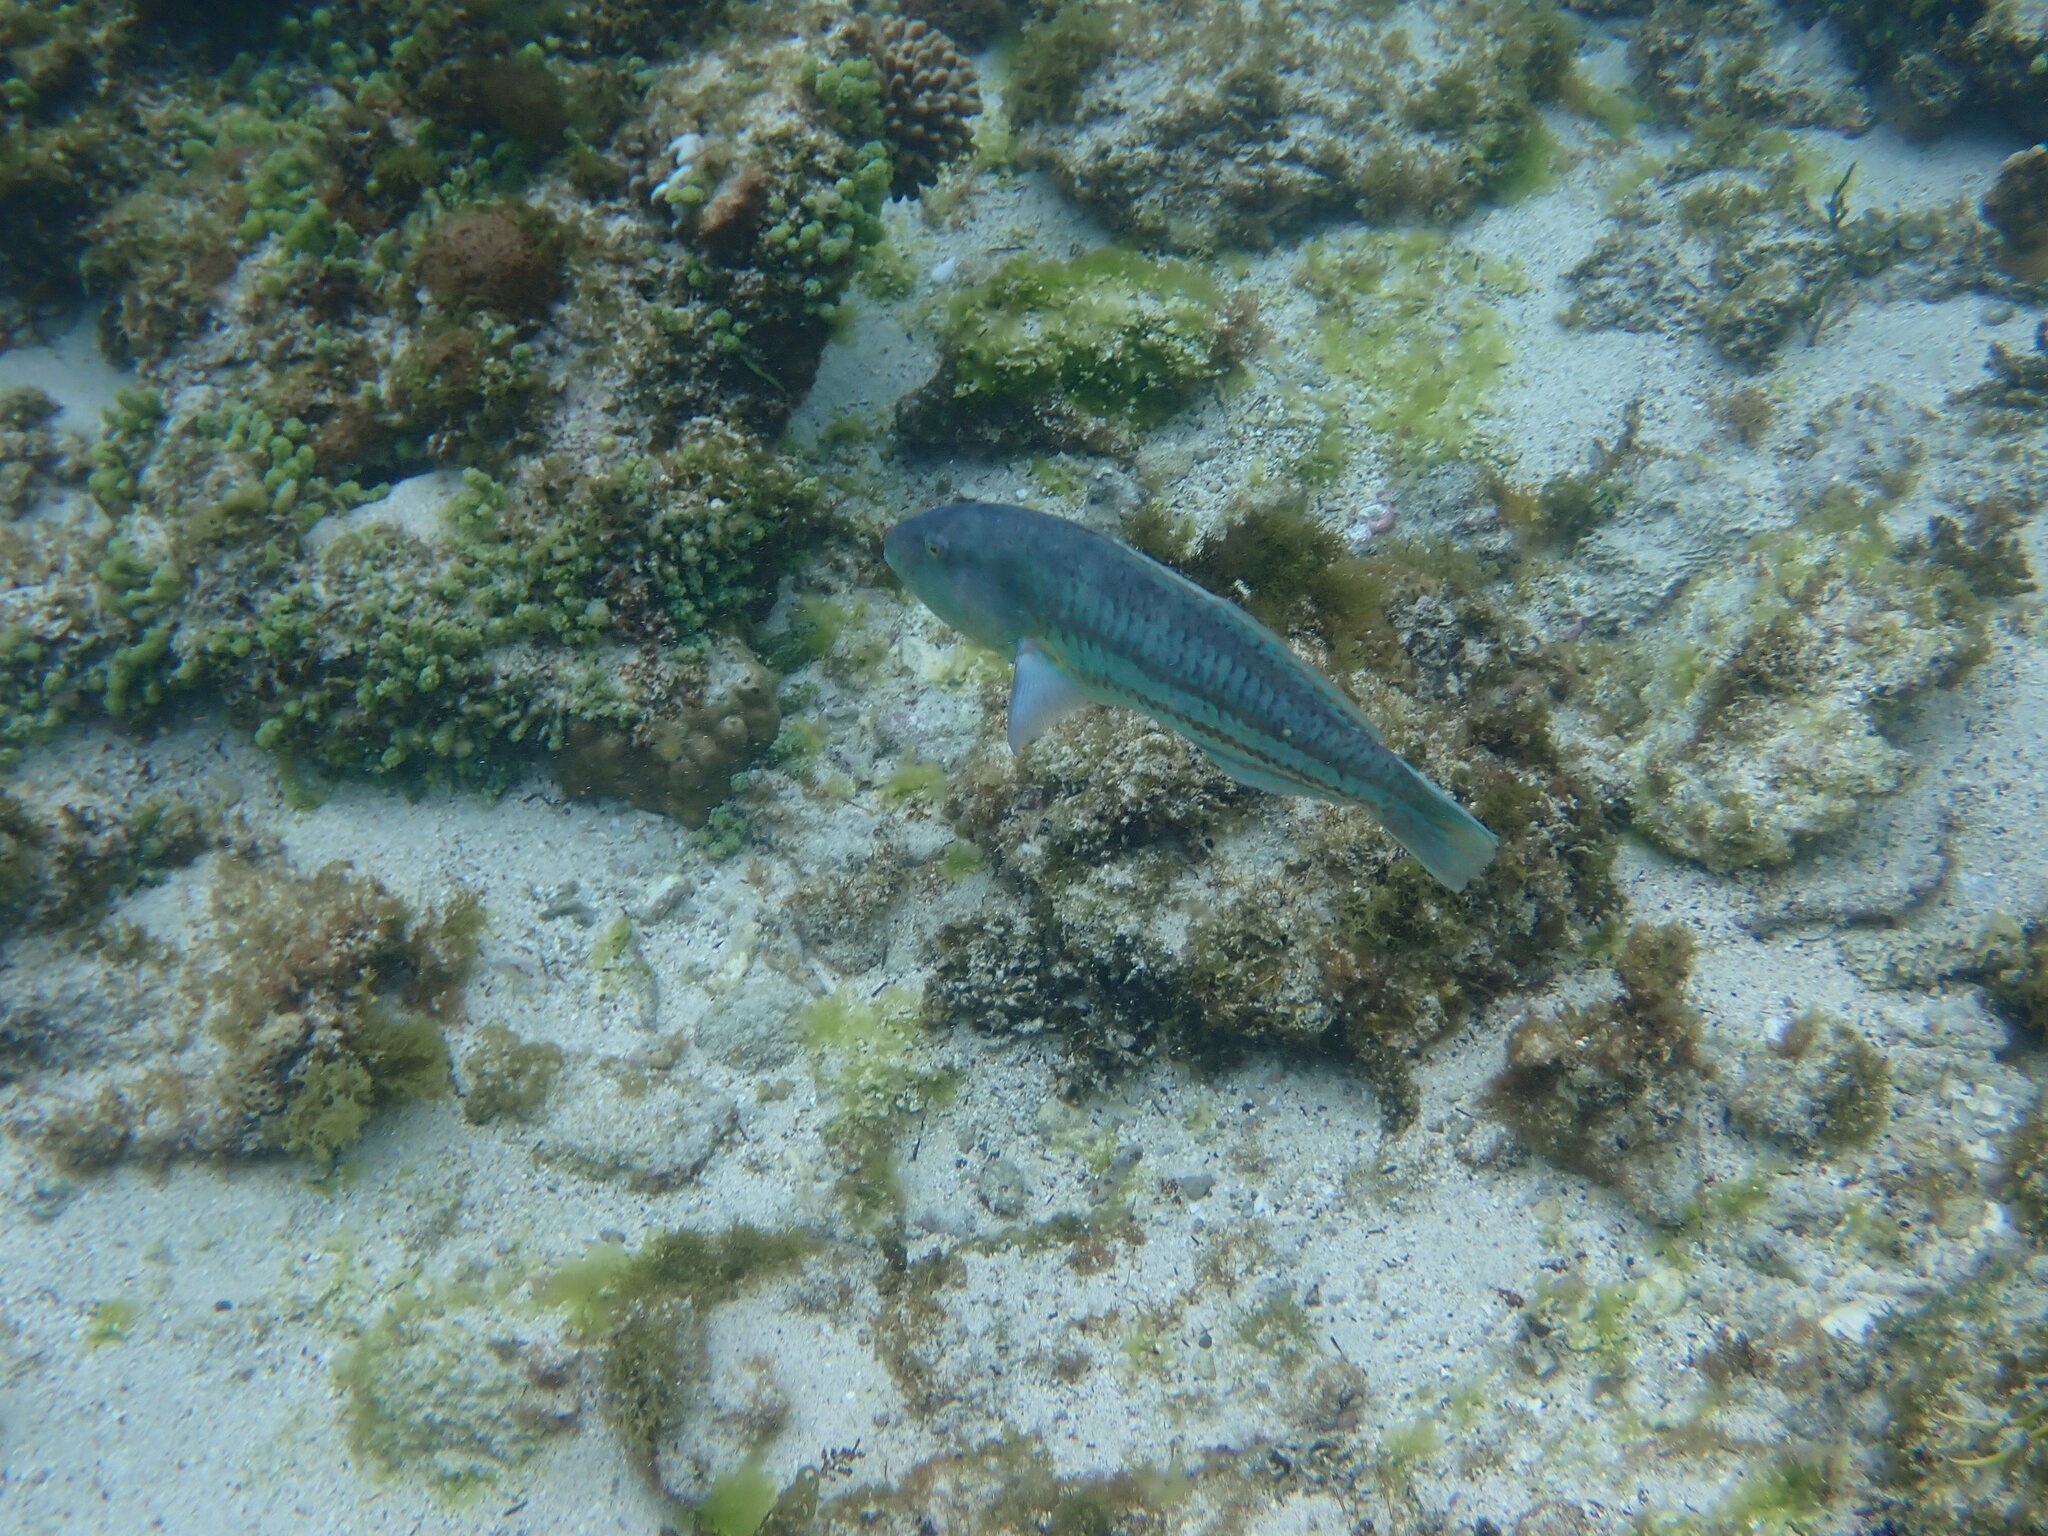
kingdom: Animalia
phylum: Chordata
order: Perciformes
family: Labridae
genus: Thalassoma
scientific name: Thalassoma purpureum
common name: Parrotfish
